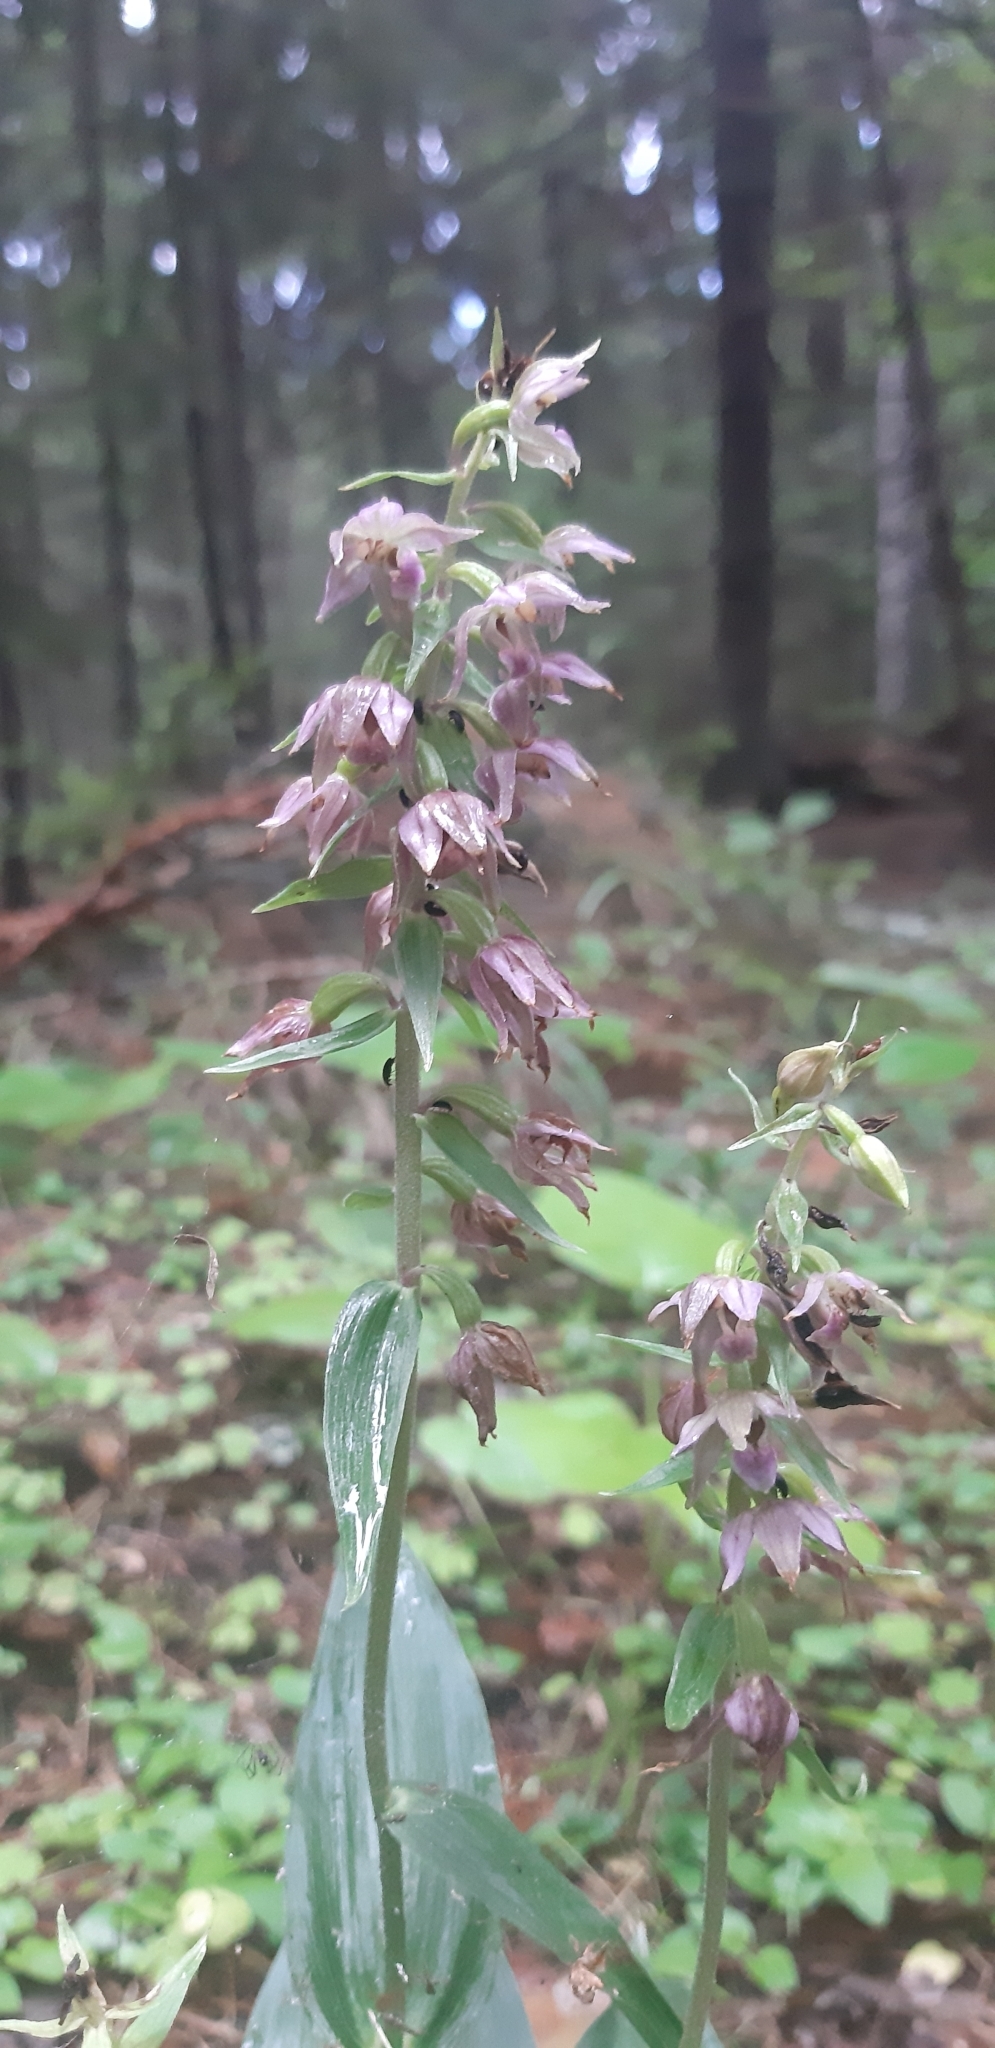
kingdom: Plantae
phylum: Tracheophyta
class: Liliopsida
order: Asparagales
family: Orchidaceae
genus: Epipactis
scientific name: Epipactis helleborine
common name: Broad-leaved helleborine
